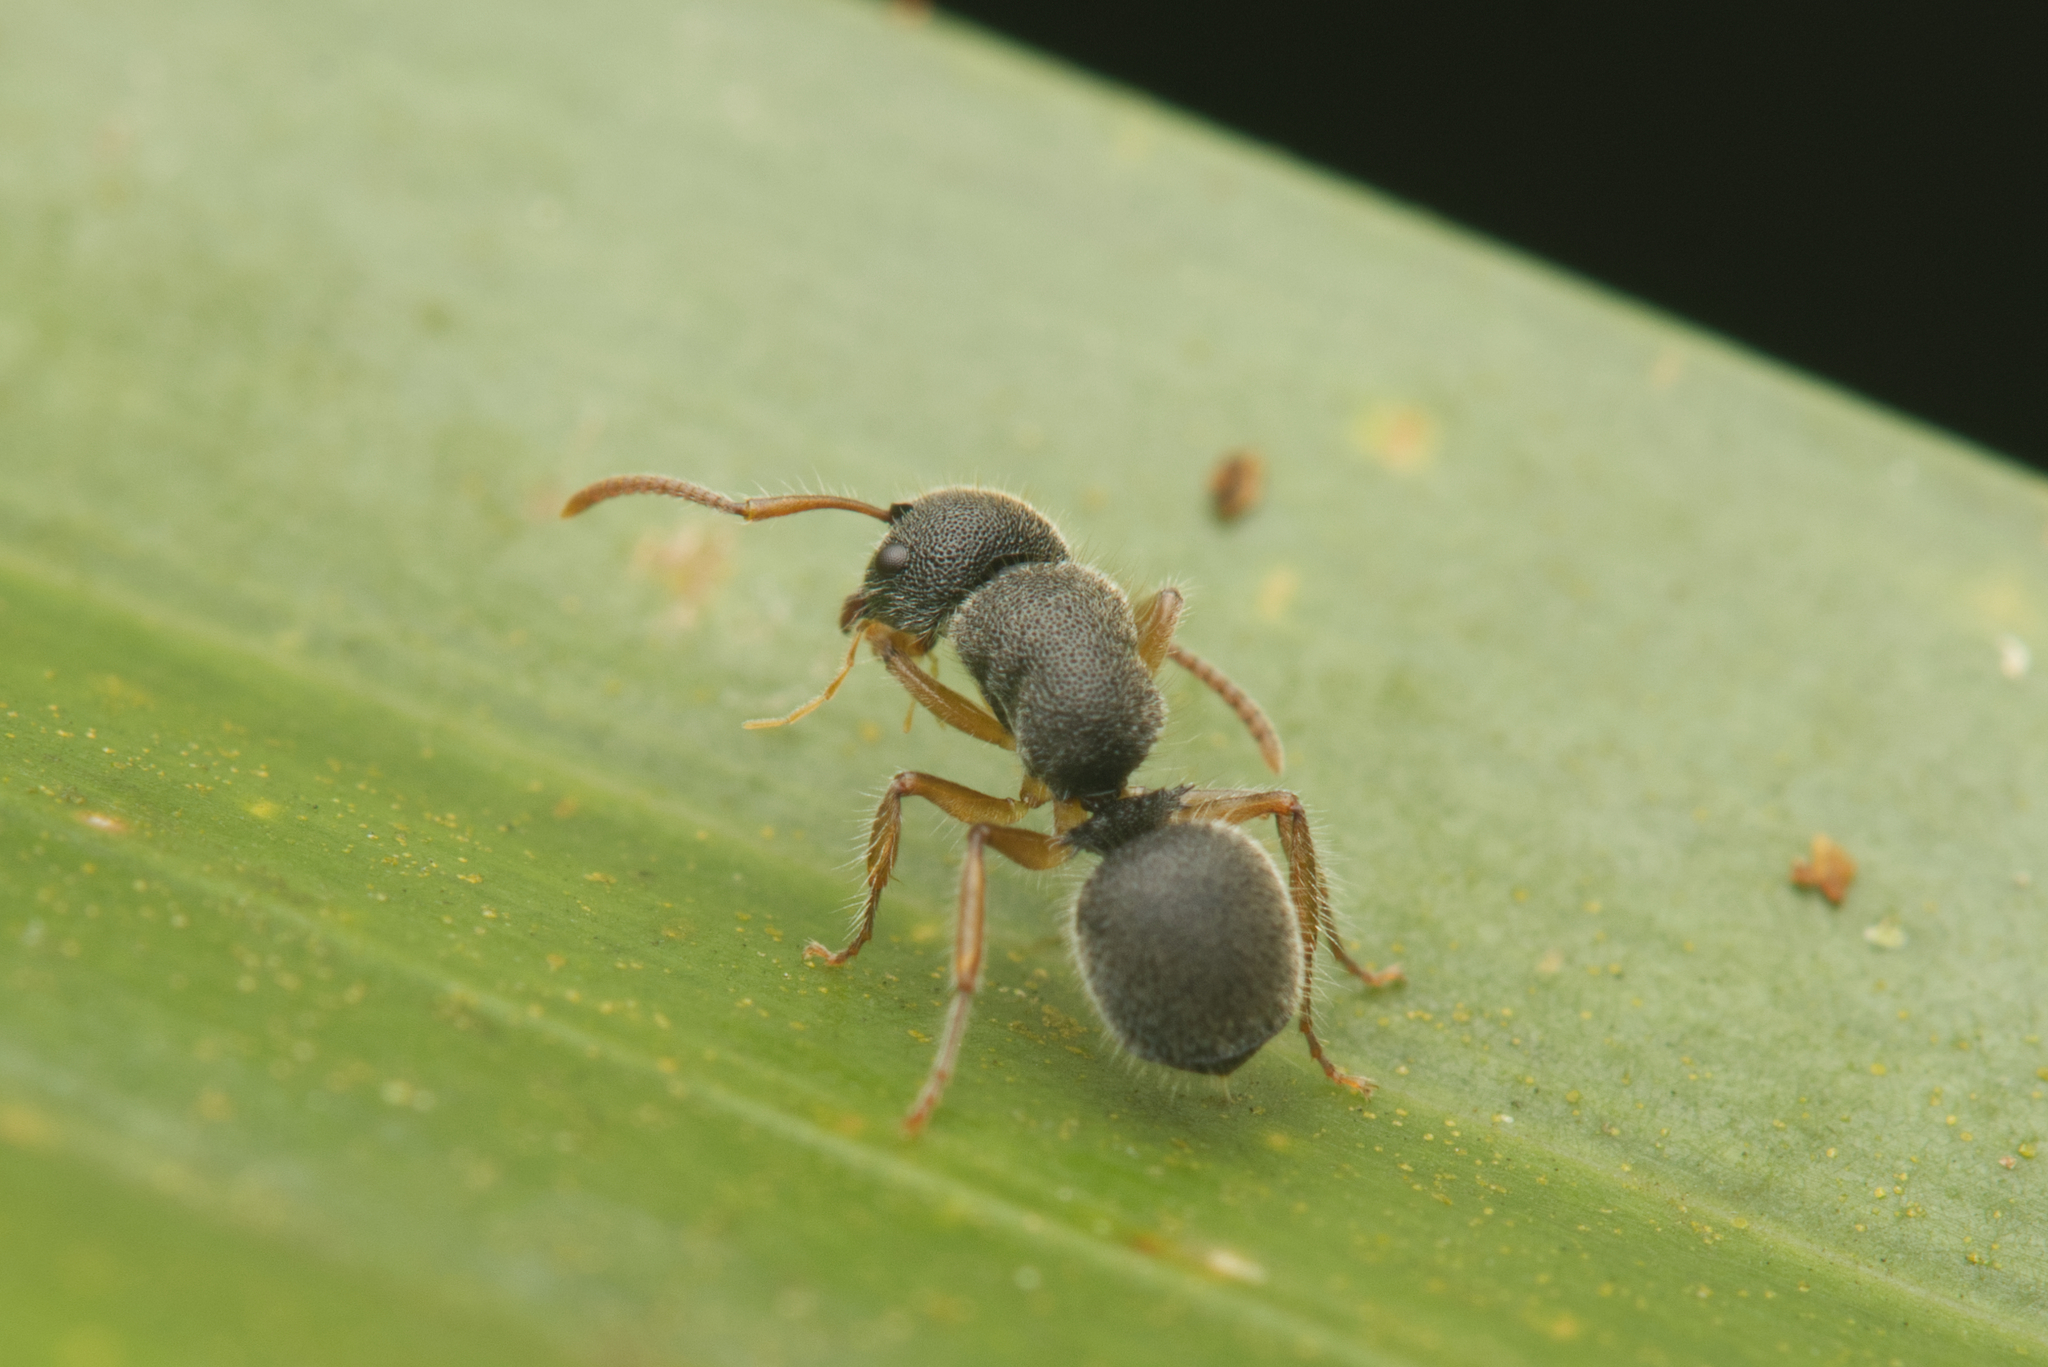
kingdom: Animalia
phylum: Arthropoda
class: Insecta
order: Hymenoptera
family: Formicidae
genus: Echinopla
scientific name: Echinopla turneri
